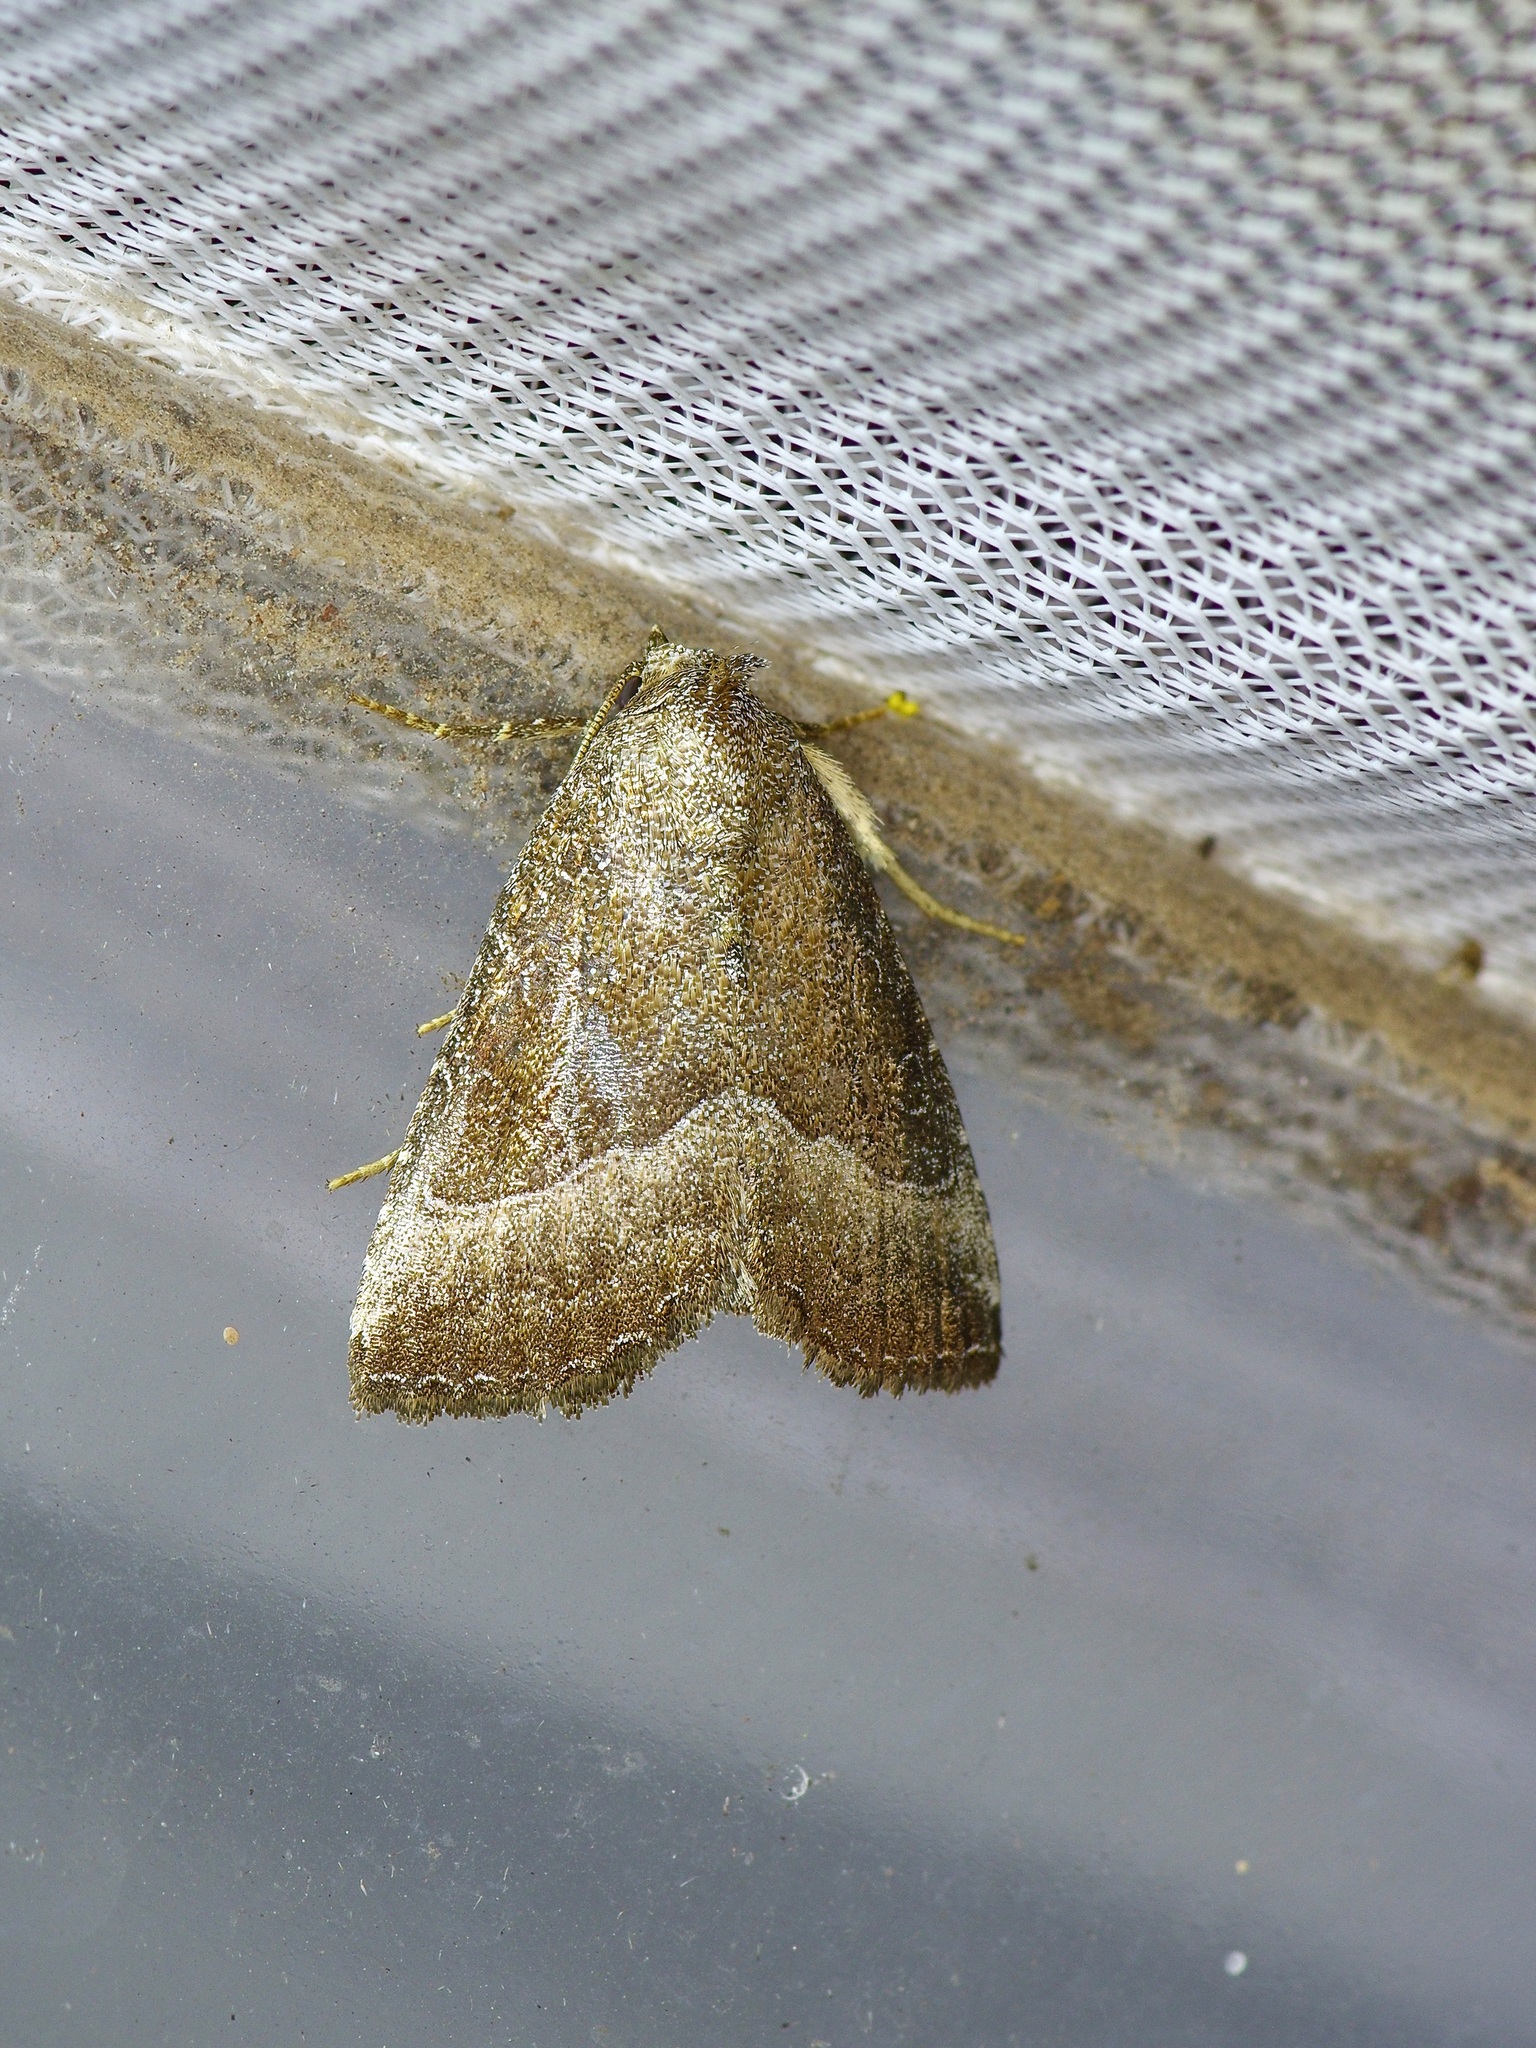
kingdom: Animalia
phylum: Arthropoda
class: Insecta
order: Lepidoptera
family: Noctuidae
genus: Ogdoconta
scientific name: Ogdoconta cinereola
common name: Common pinkband
